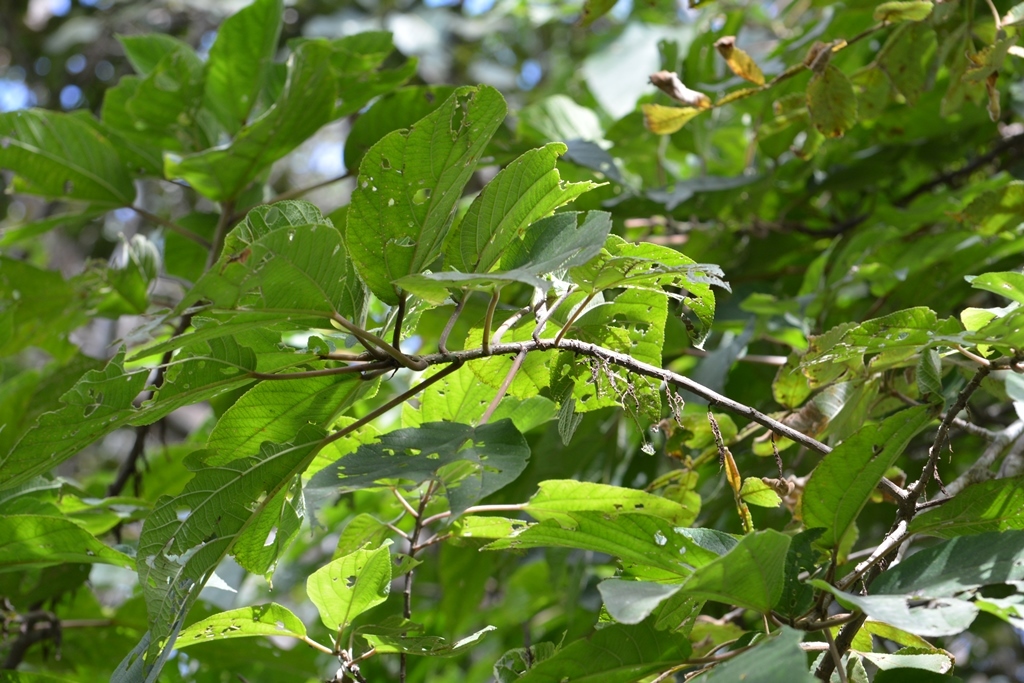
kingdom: Plantae
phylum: Tracheophyta
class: Magnoliopsida
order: Rosales
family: Urticaceae
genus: Myriocarpa
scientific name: Myriocarpa longipes
